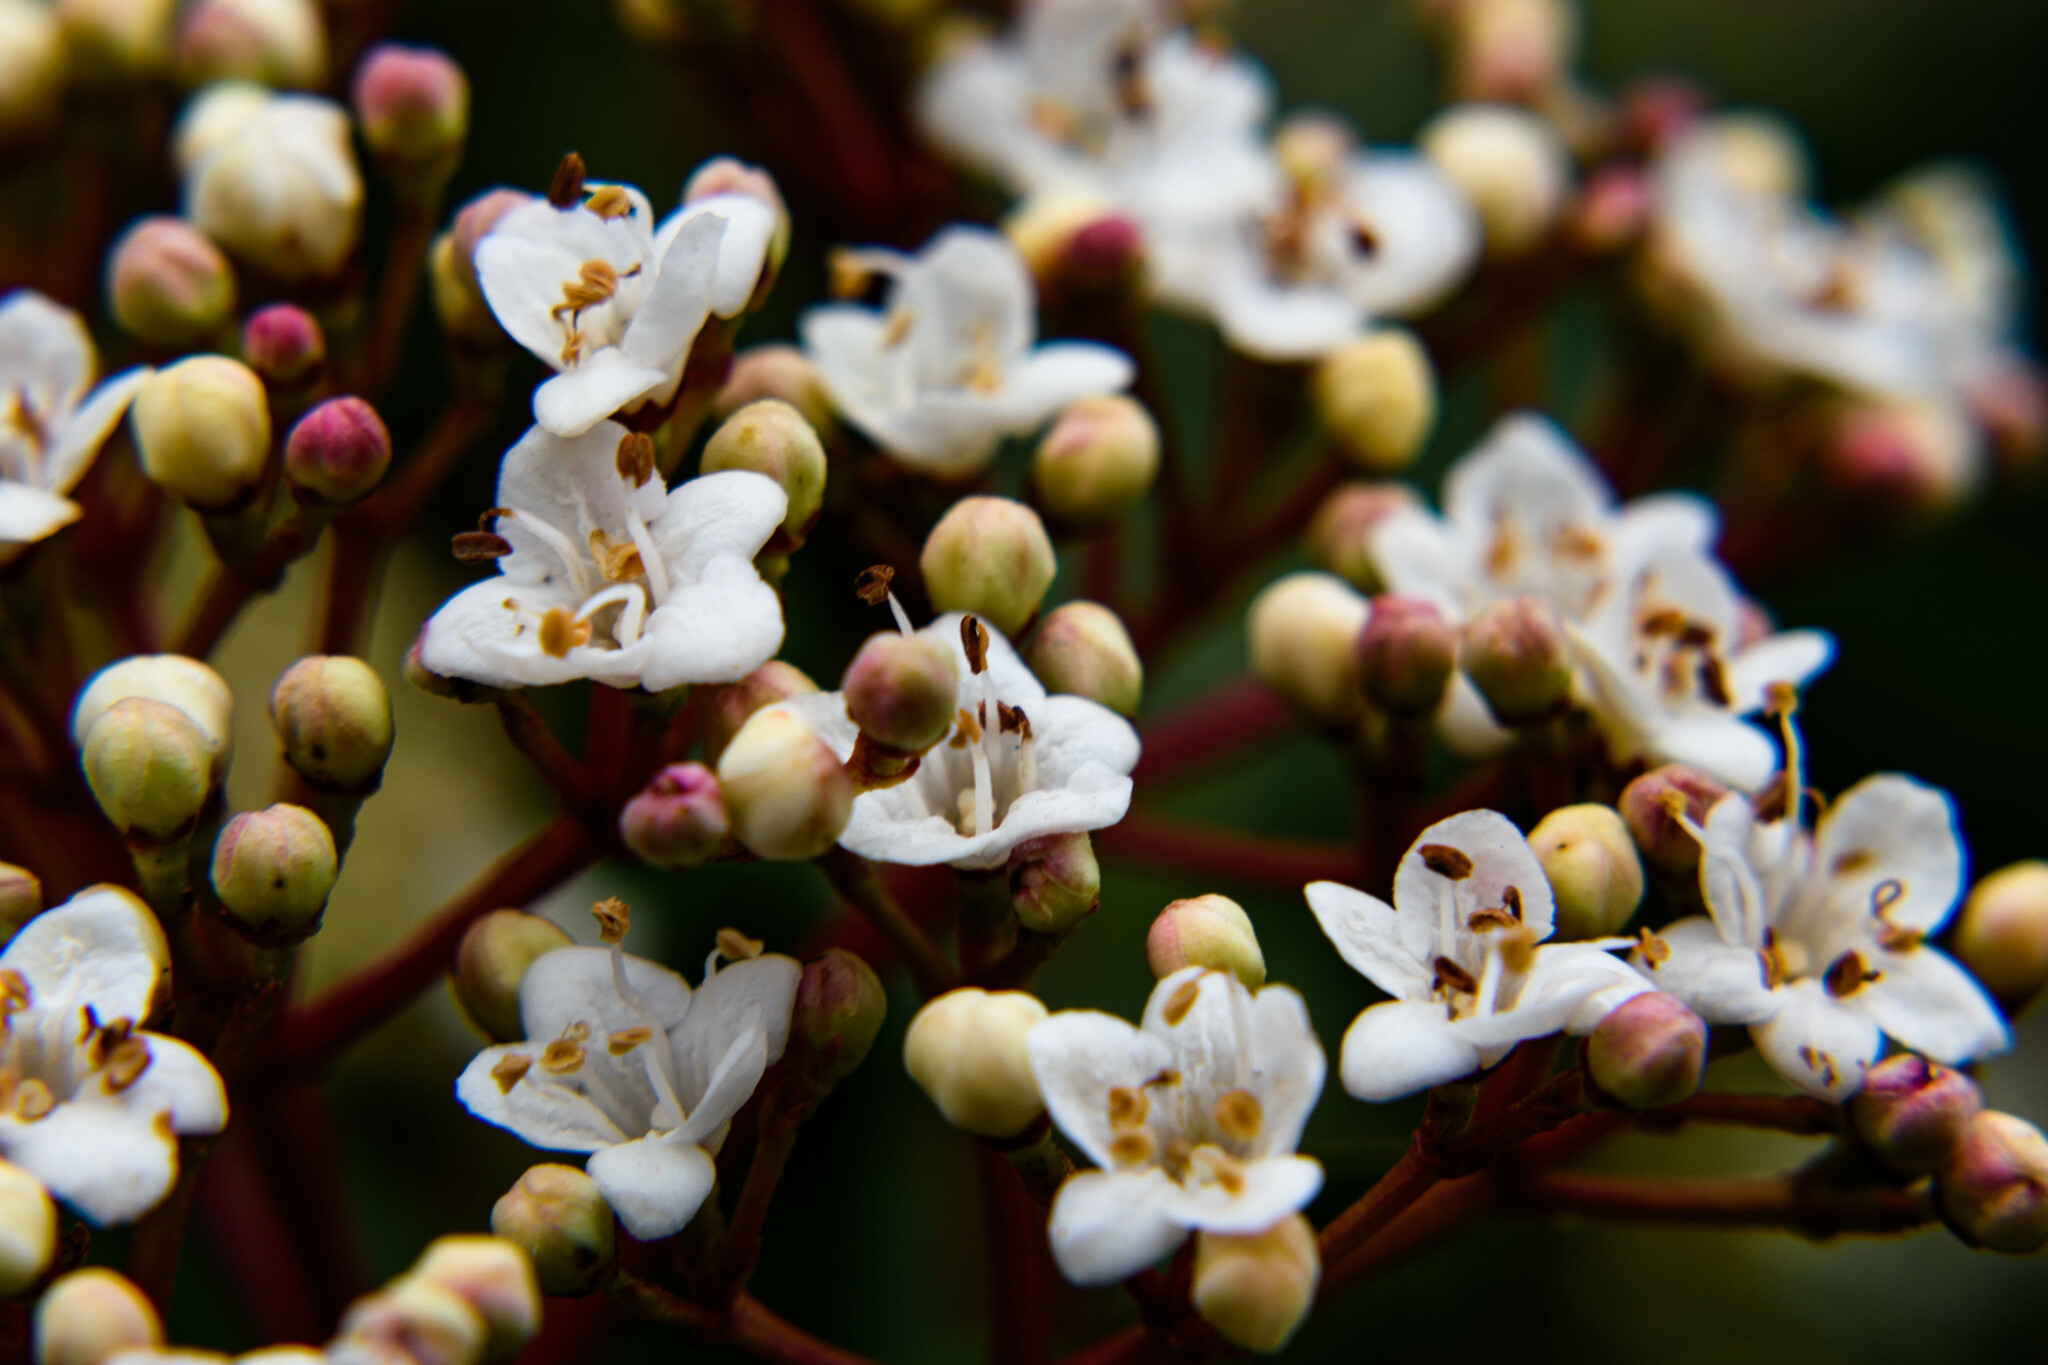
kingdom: Plantae
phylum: Tracheophyta
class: Magnoliopsida
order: Dipsacales
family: Viburnaceae
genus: Viburnum
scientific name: Viburnum tinus
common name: Laurustinus
